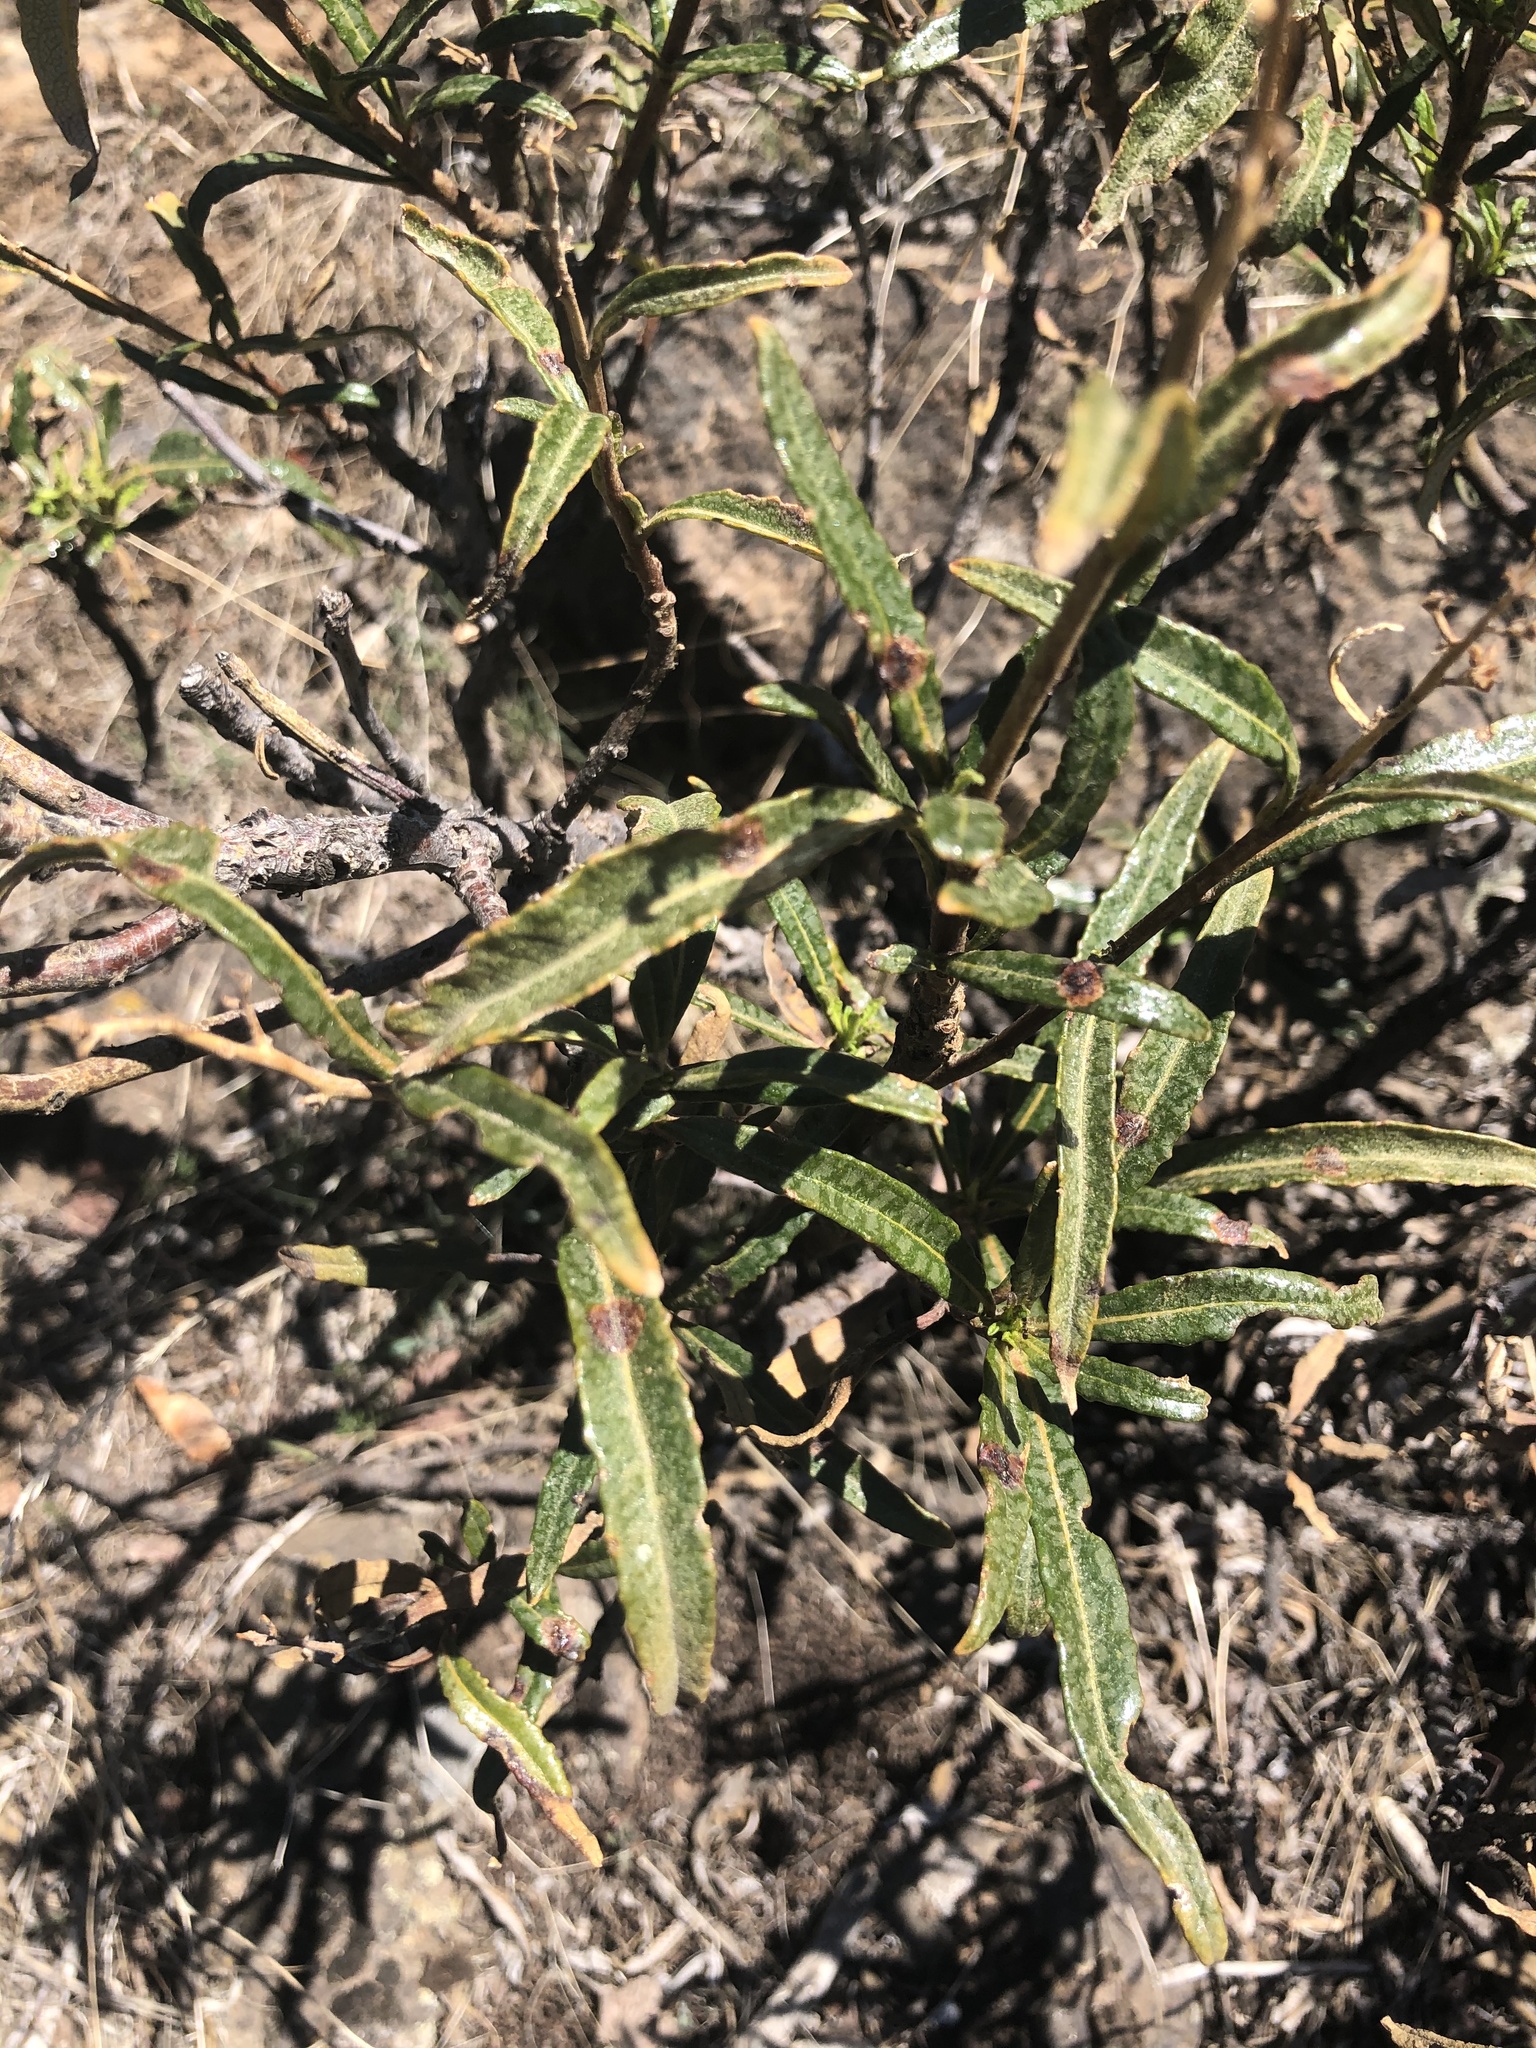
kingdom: Plantae
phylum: Tracheophyta
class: Magnoliopsida
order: Boraginales
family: Namaceae
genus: Eriodictyon
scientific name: Eriodictyon californicum
